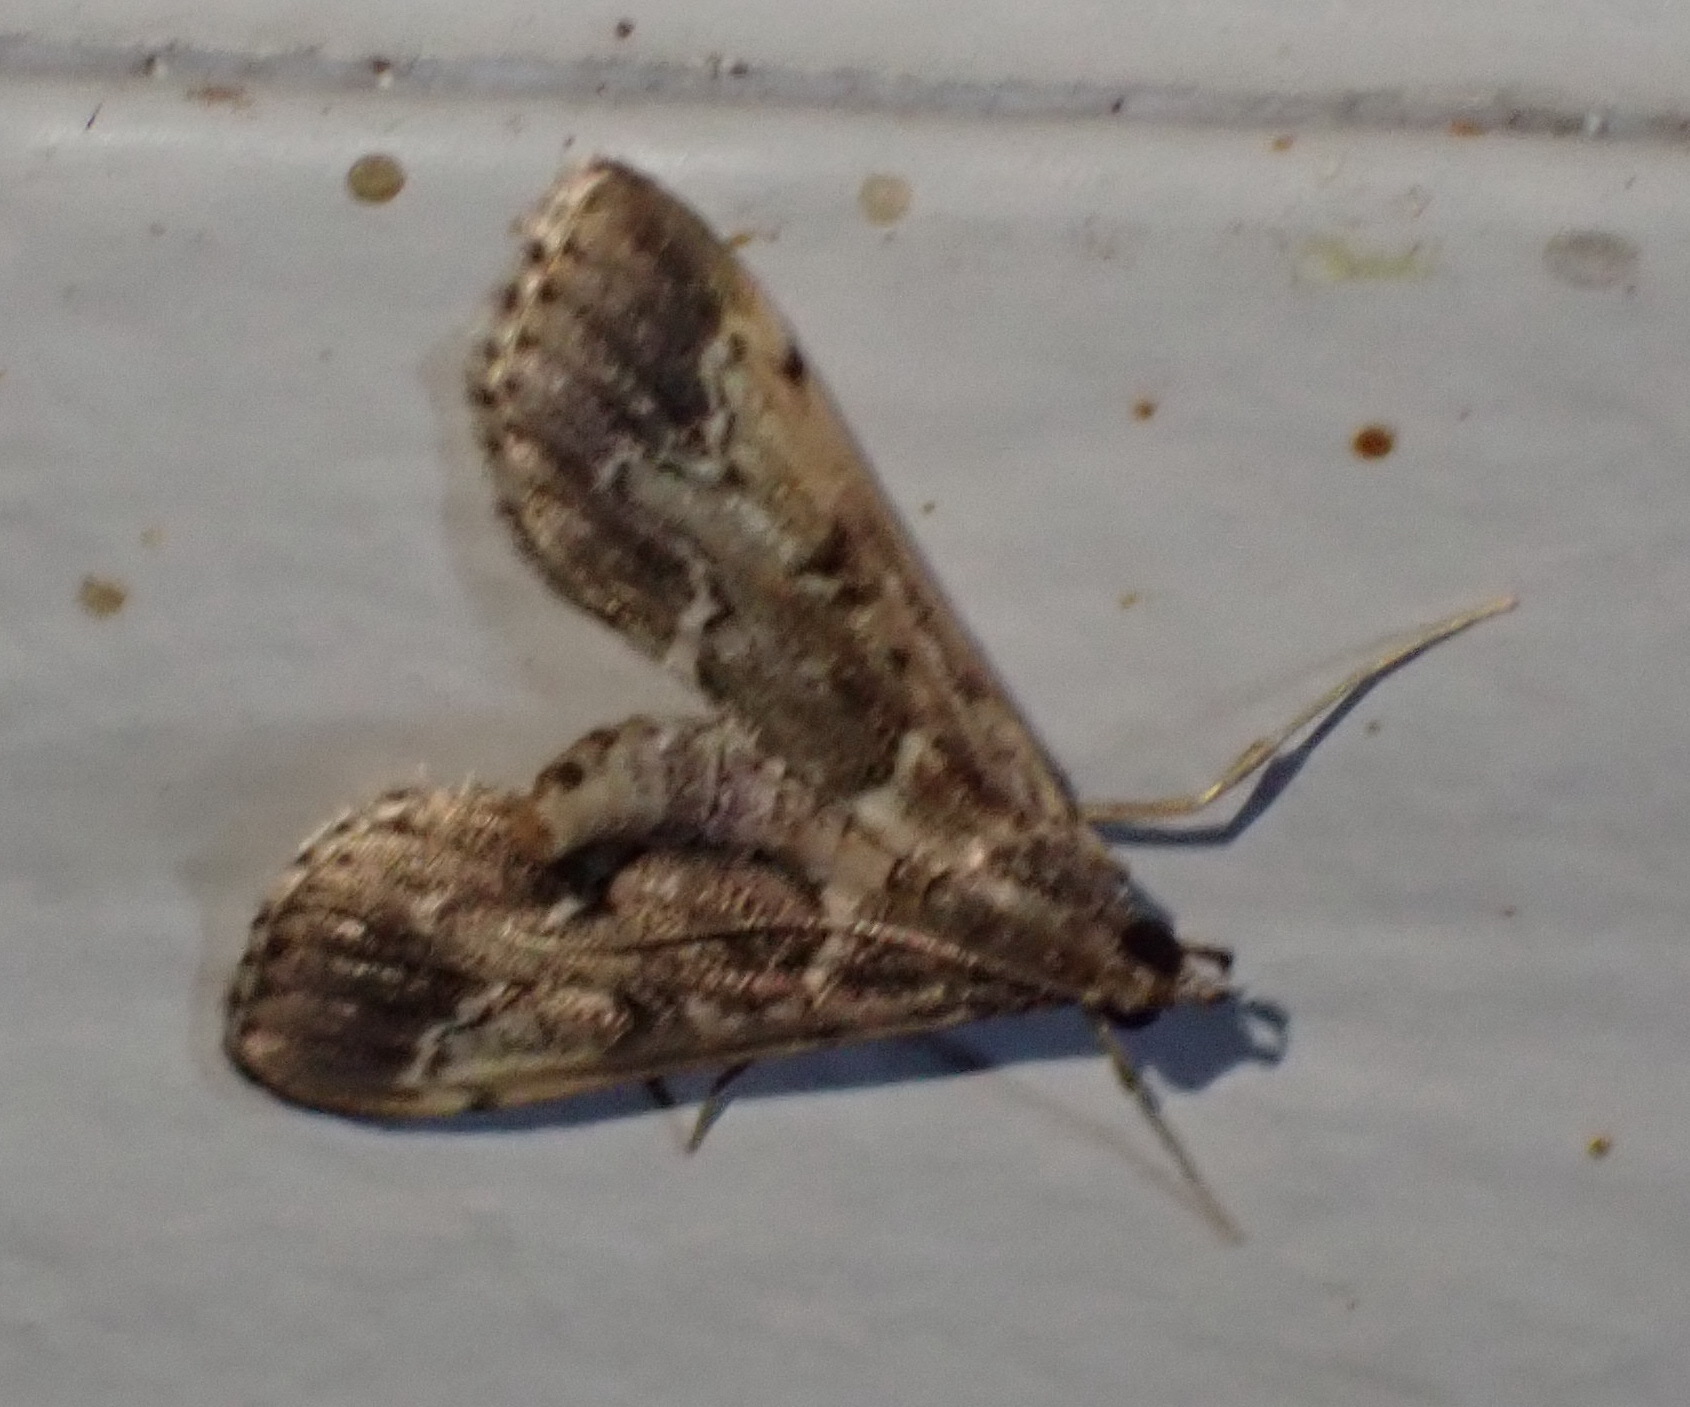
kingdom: Animalia
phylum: Arthropoda
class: Insecta
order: Lepidoptera
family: Crambidae
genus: Duponchelia
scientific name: Duponchelia fovealis
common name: Crambid moth
